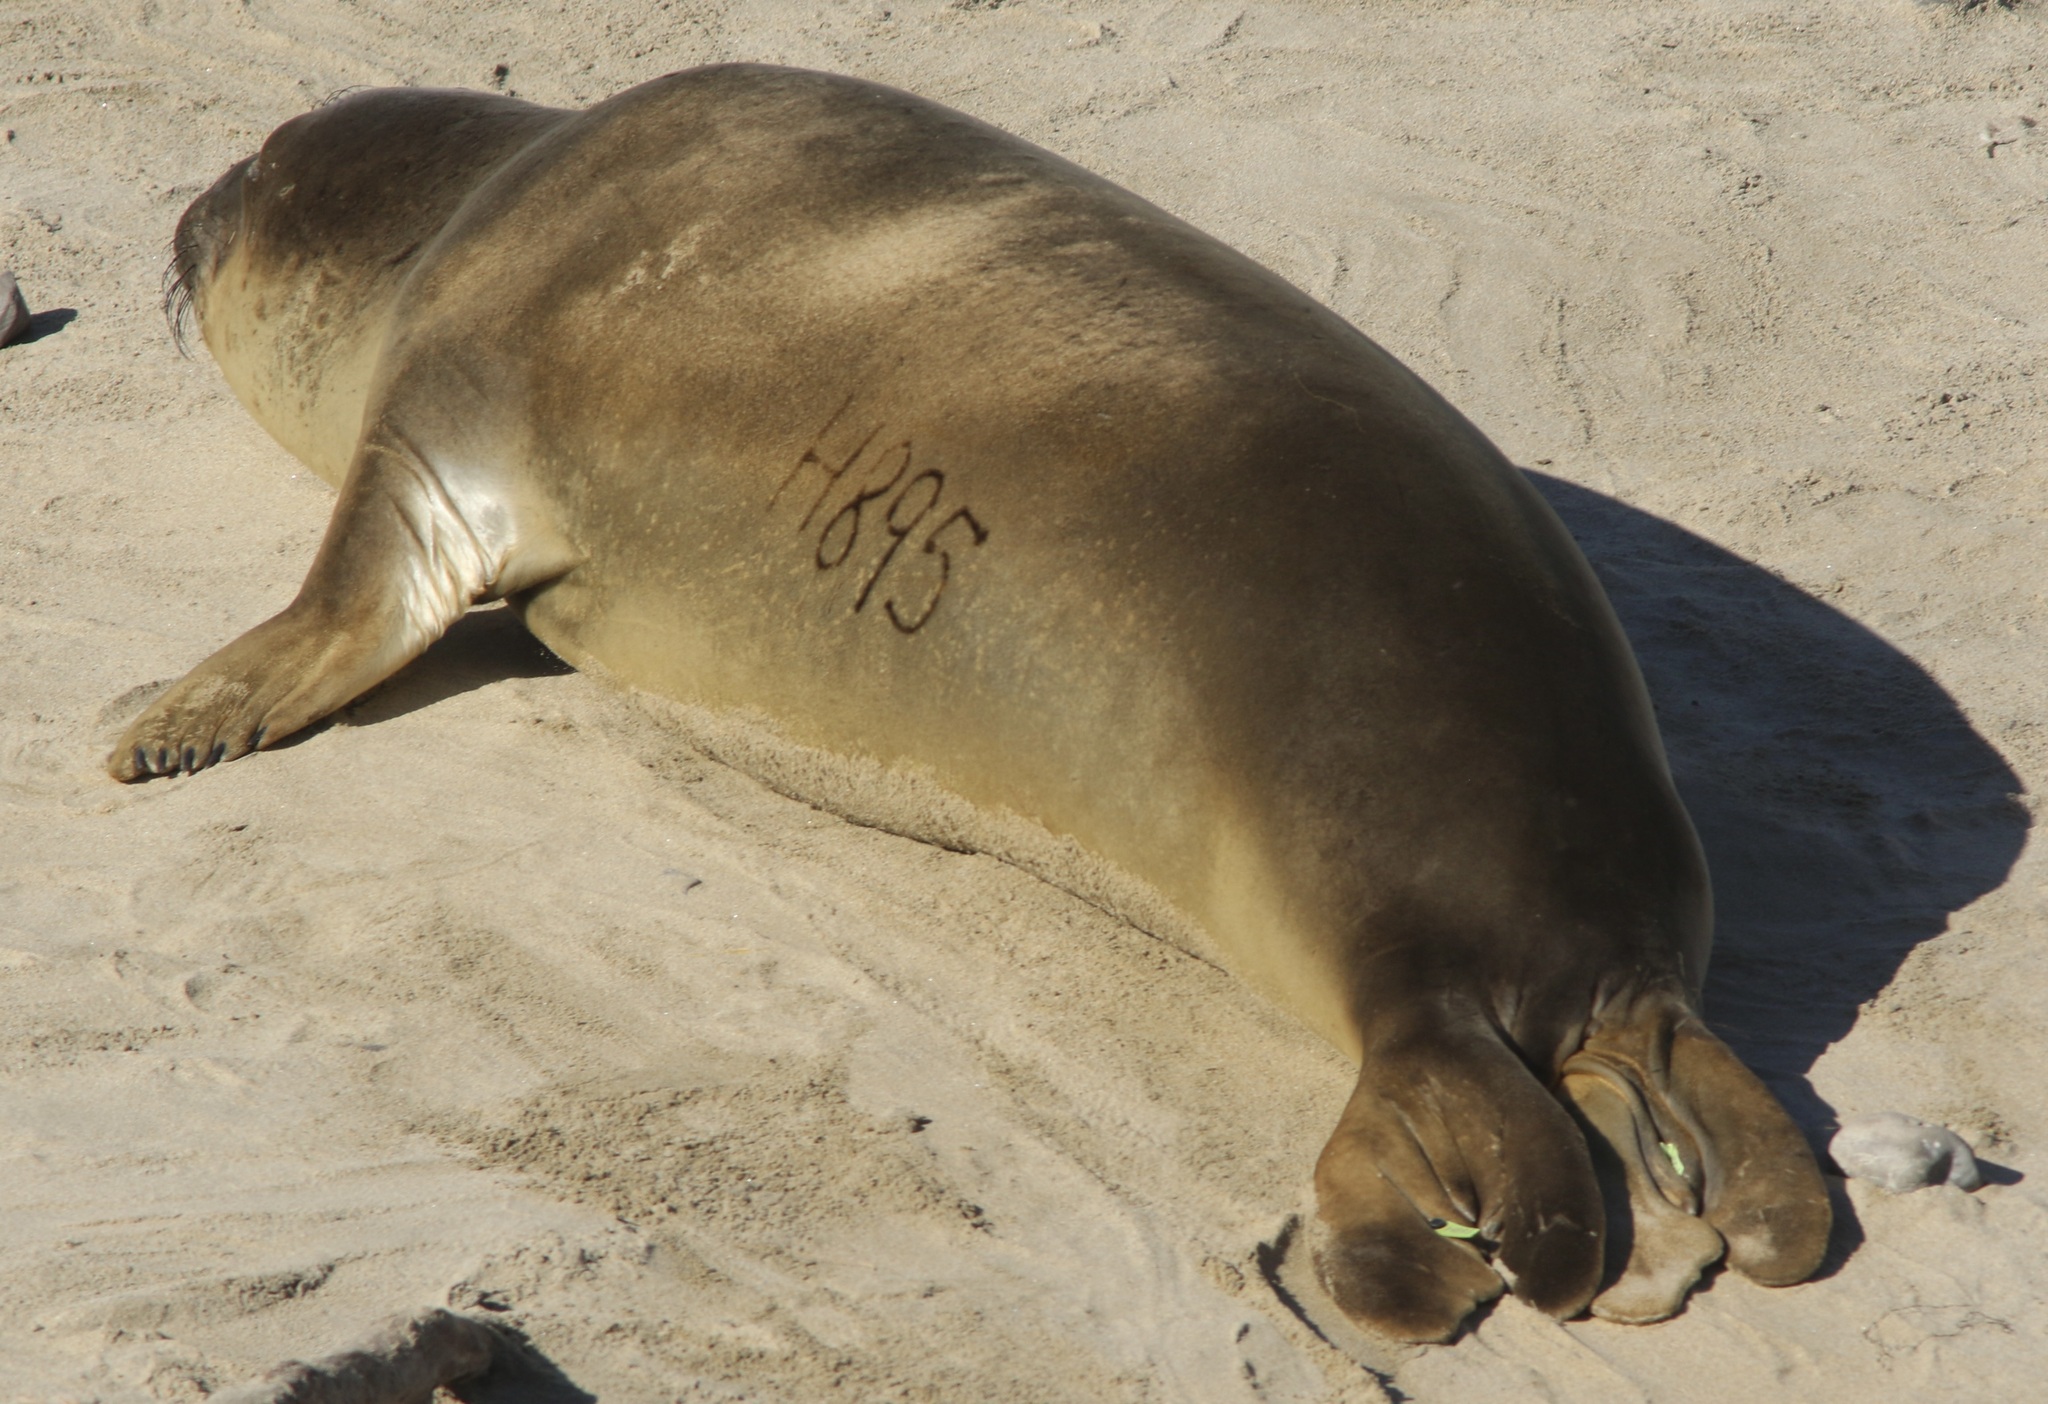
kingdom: Animalia
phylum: Chordata
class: Mammalia
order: Carnivora
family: Phocidae
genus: Mirounga
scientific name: Mirounga angustirostris
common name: Northern elephant seal
